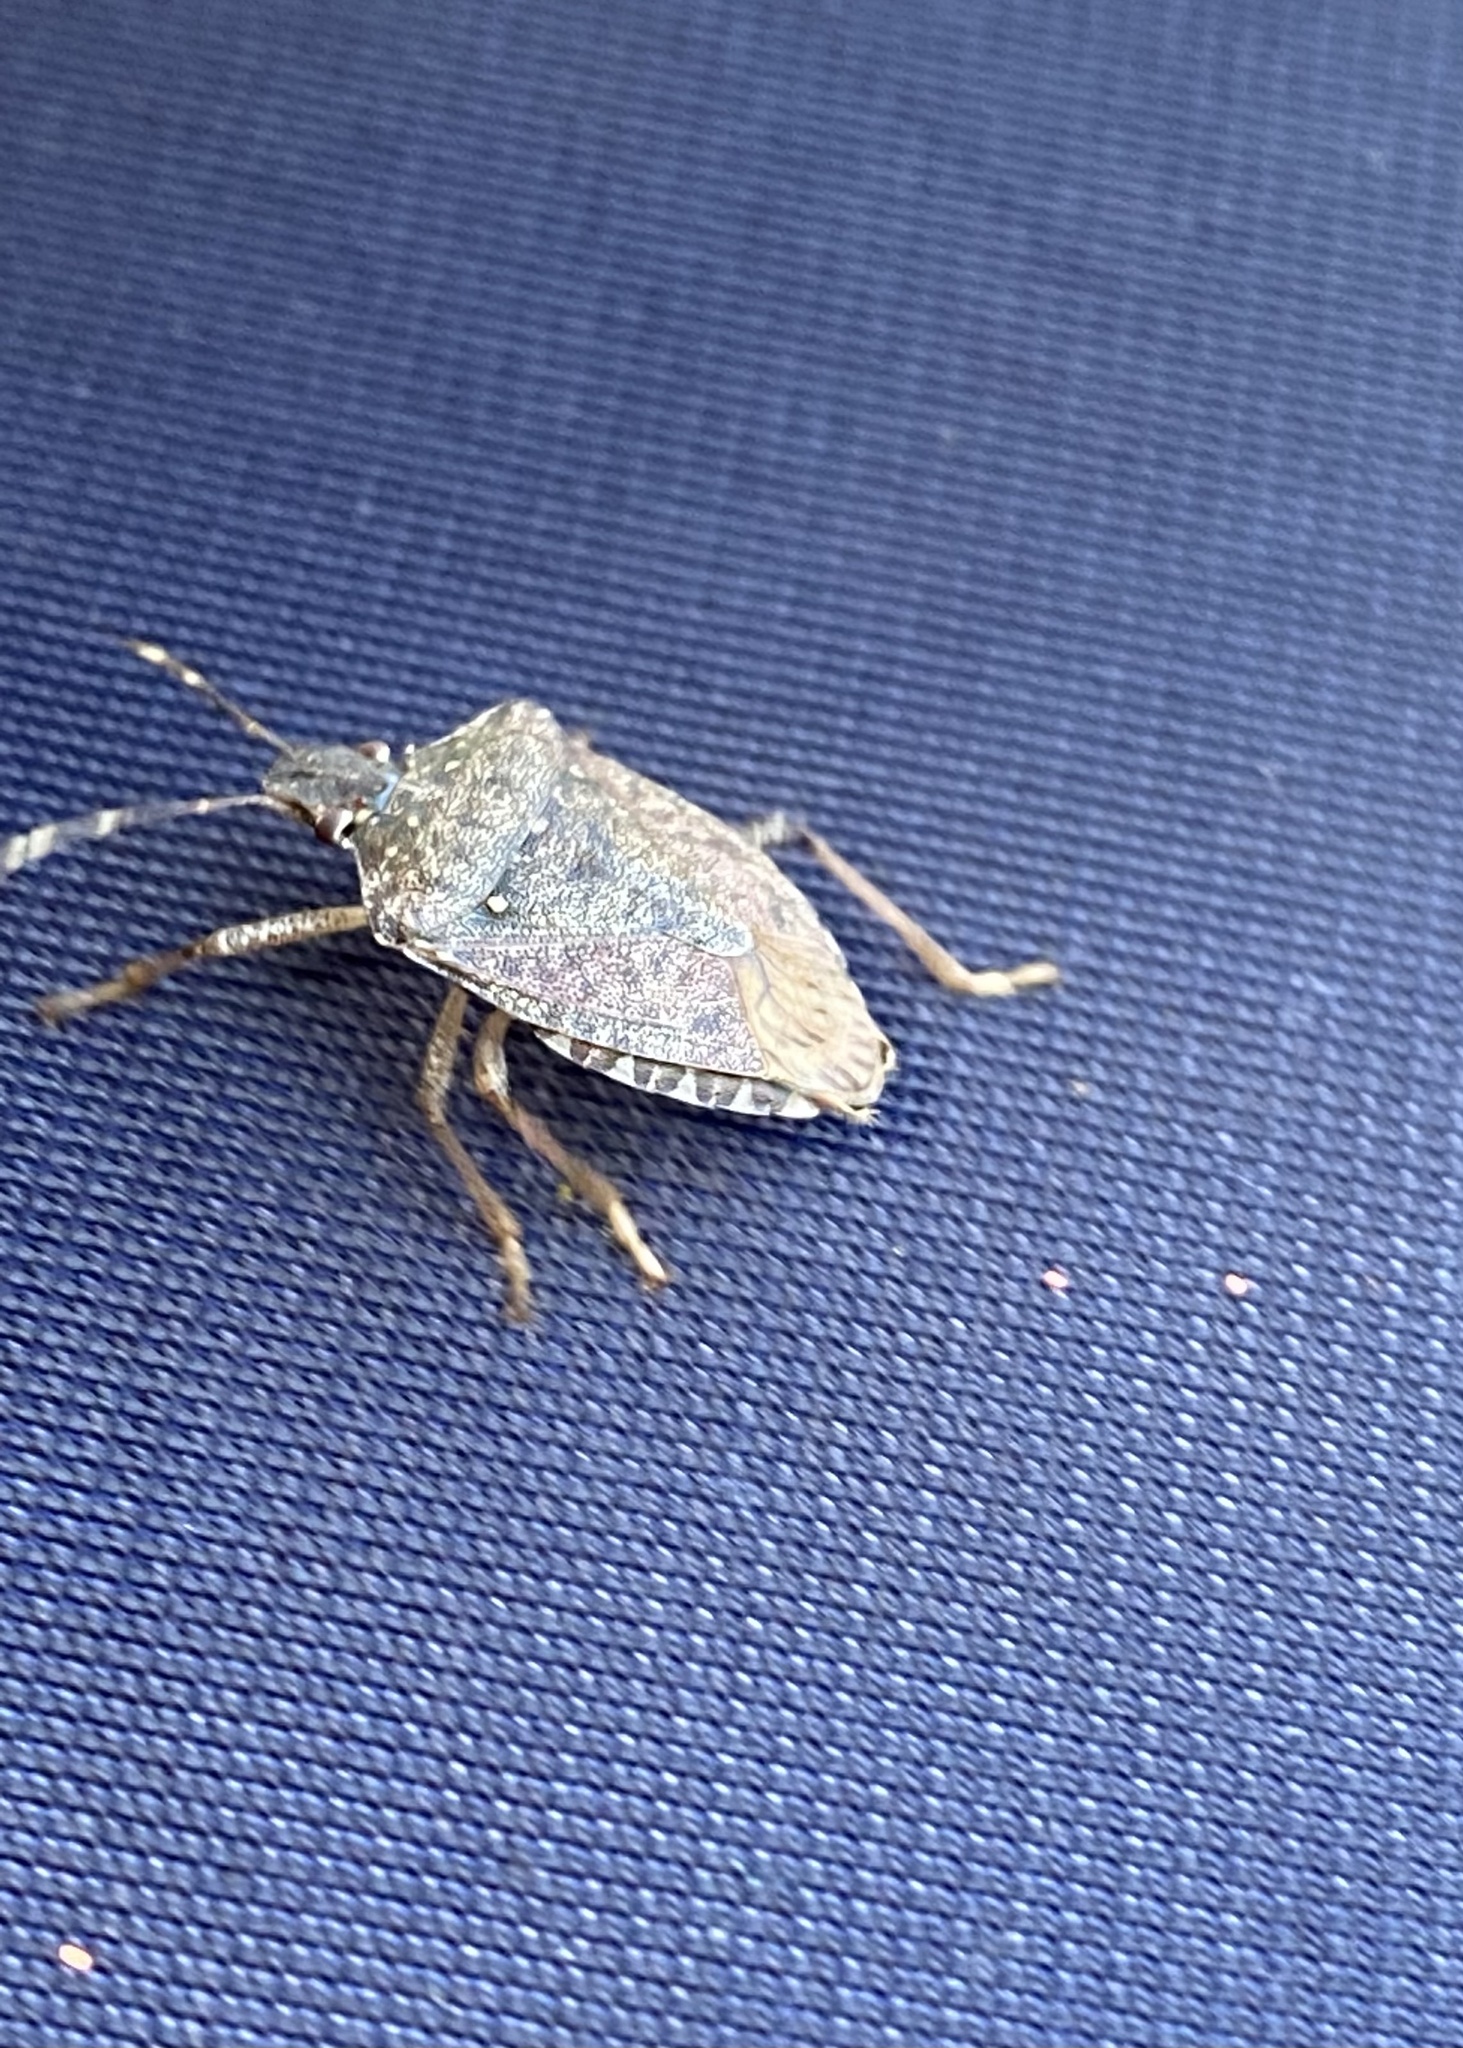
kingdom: Animalia
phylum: Arthropoda
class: Insecta
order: Hemiptera
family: Pentatomidae
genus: Halyomorpha
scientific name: Halyomorpha halys
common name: Brown marmorated stink bug
